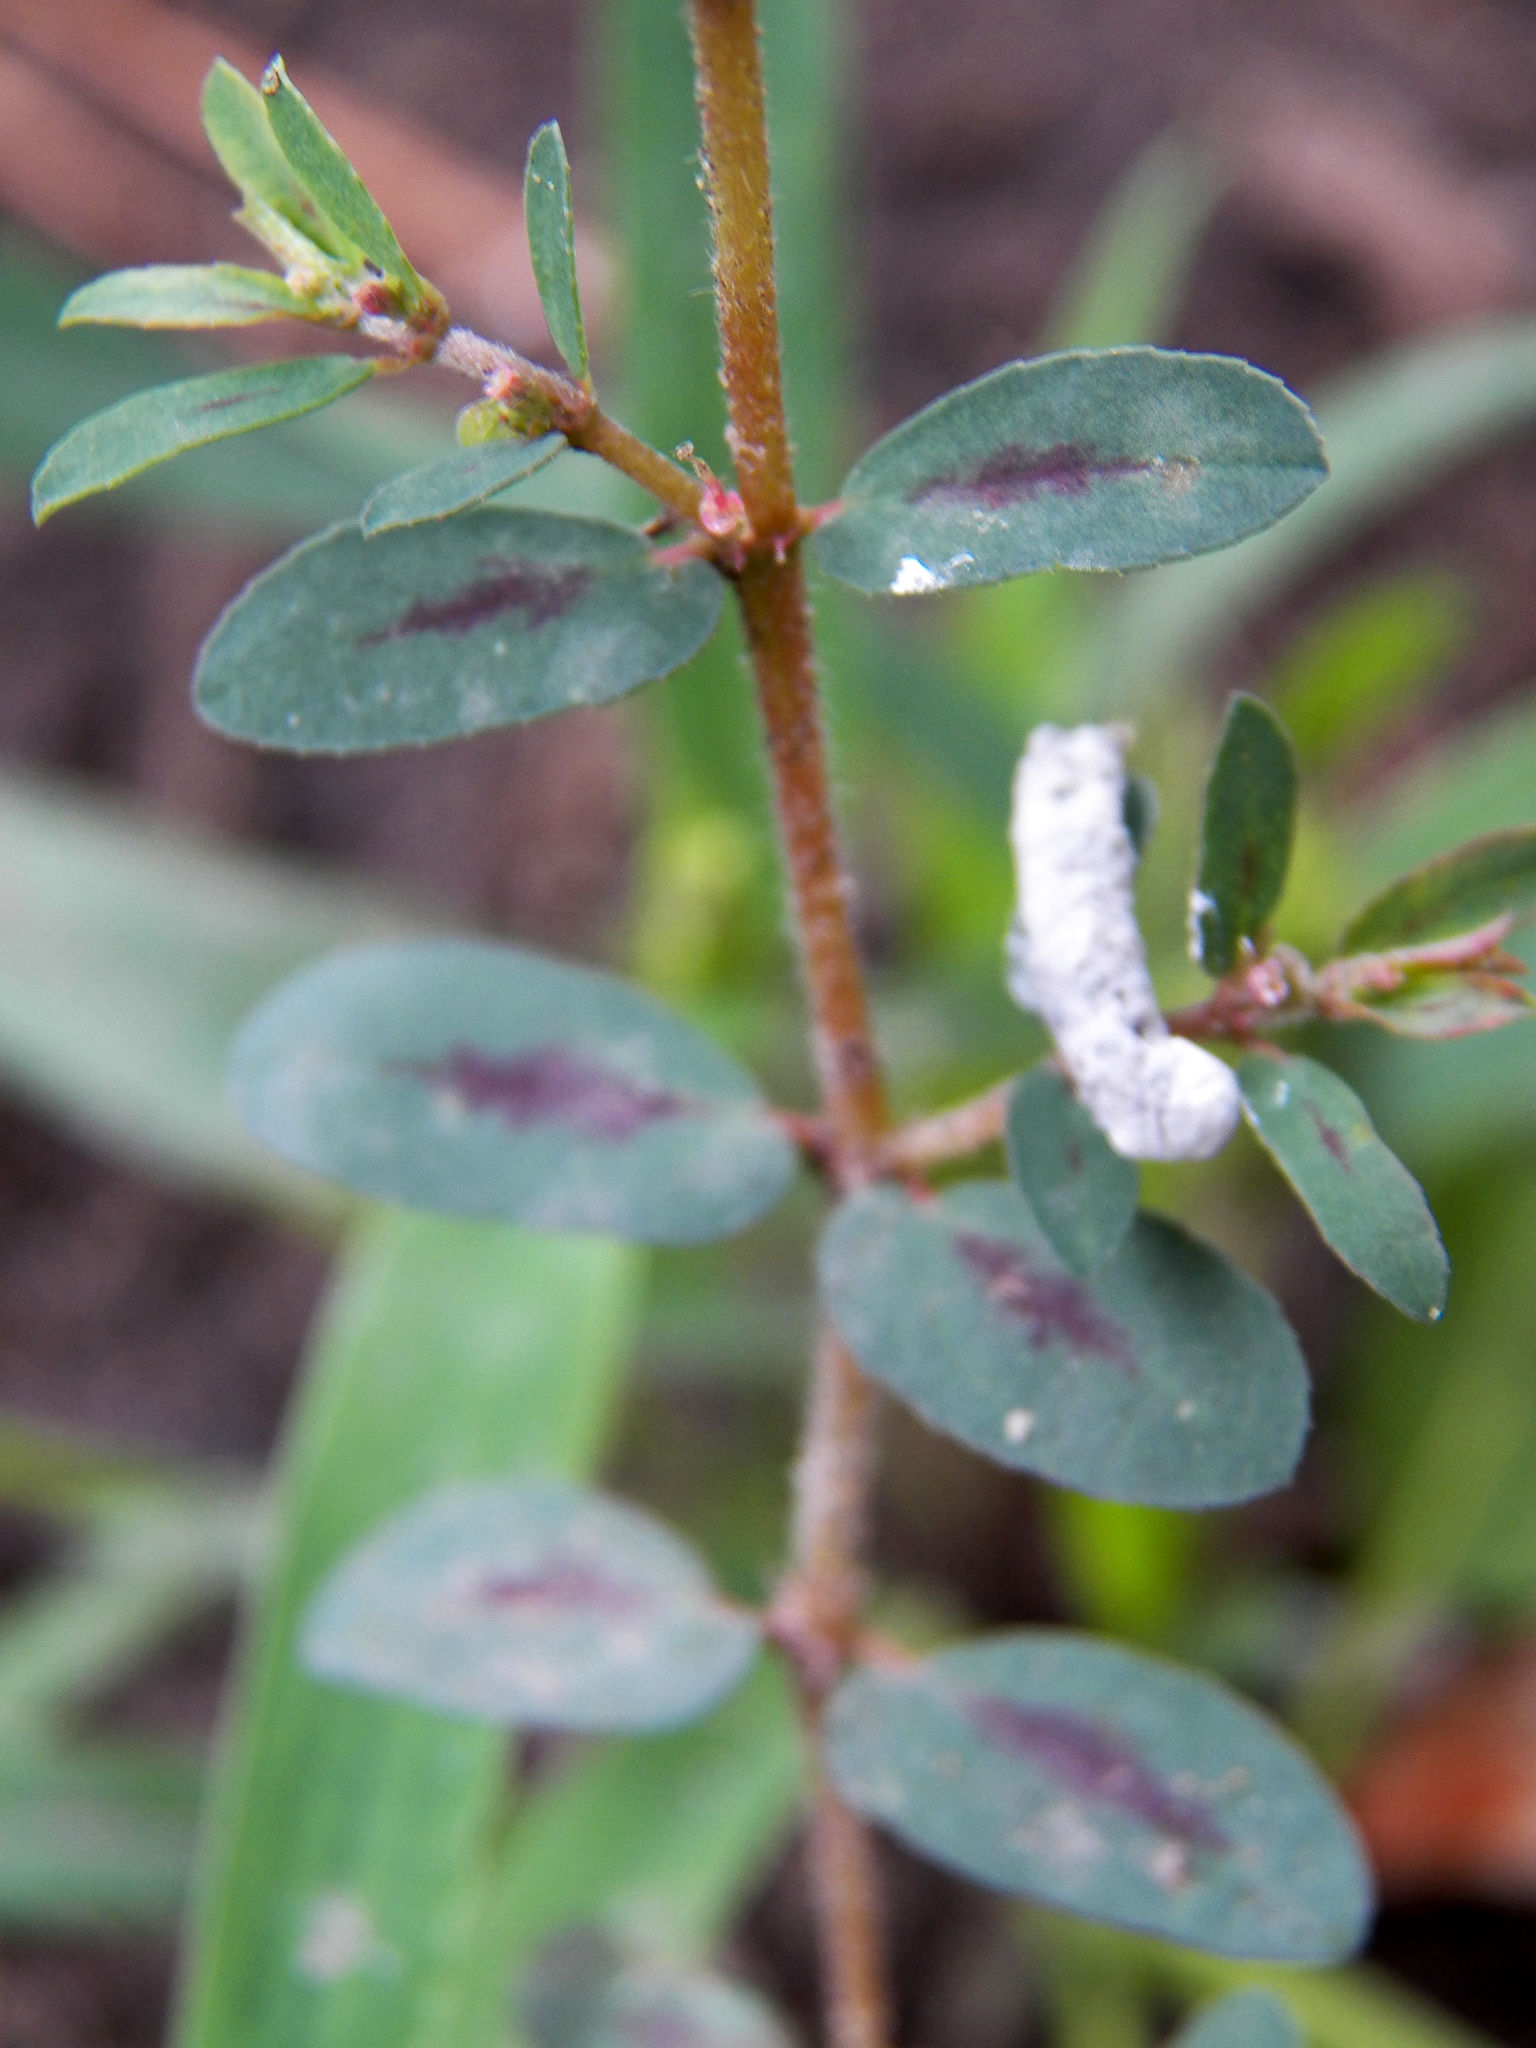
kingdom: Plantae
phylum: Tracheophyta
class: Magnoliopsida
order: Malpighiales
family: Euphorbiaceae
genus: Euphorbia
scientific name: Euphorbia maculata
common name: Spotted spurge
